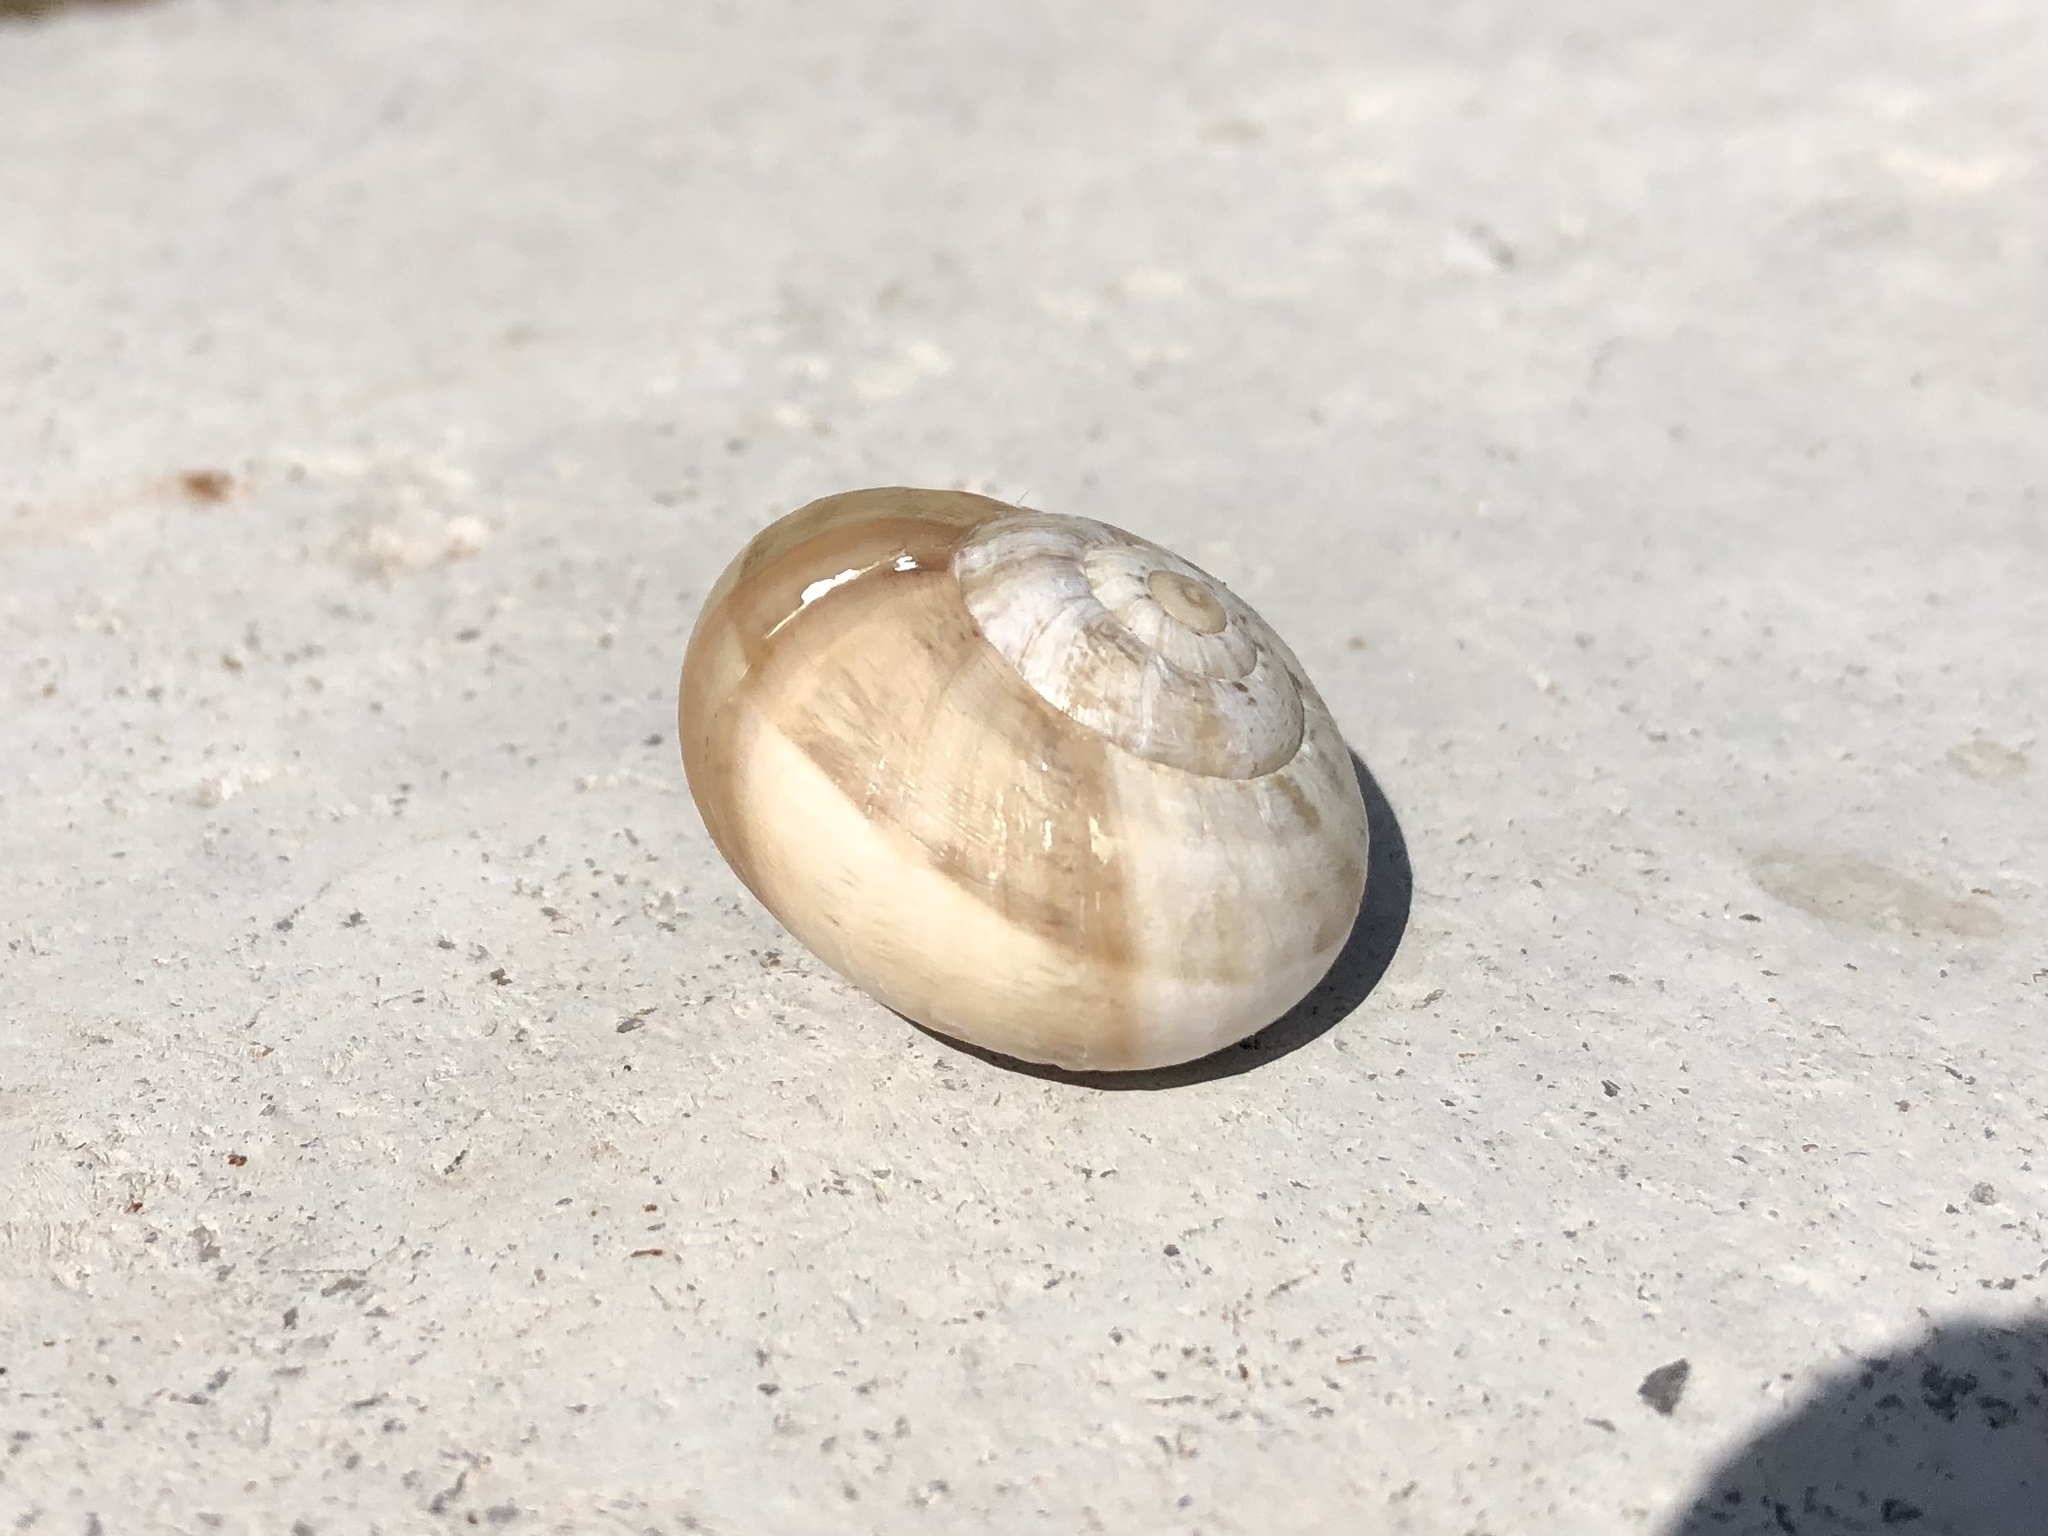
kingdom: Animalia
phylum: Mollusca
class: Gastropoda
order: Stylommatophora
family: Helicidae
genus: Eobania
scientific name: Eobania vermiculata
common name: Chocolateband snail
